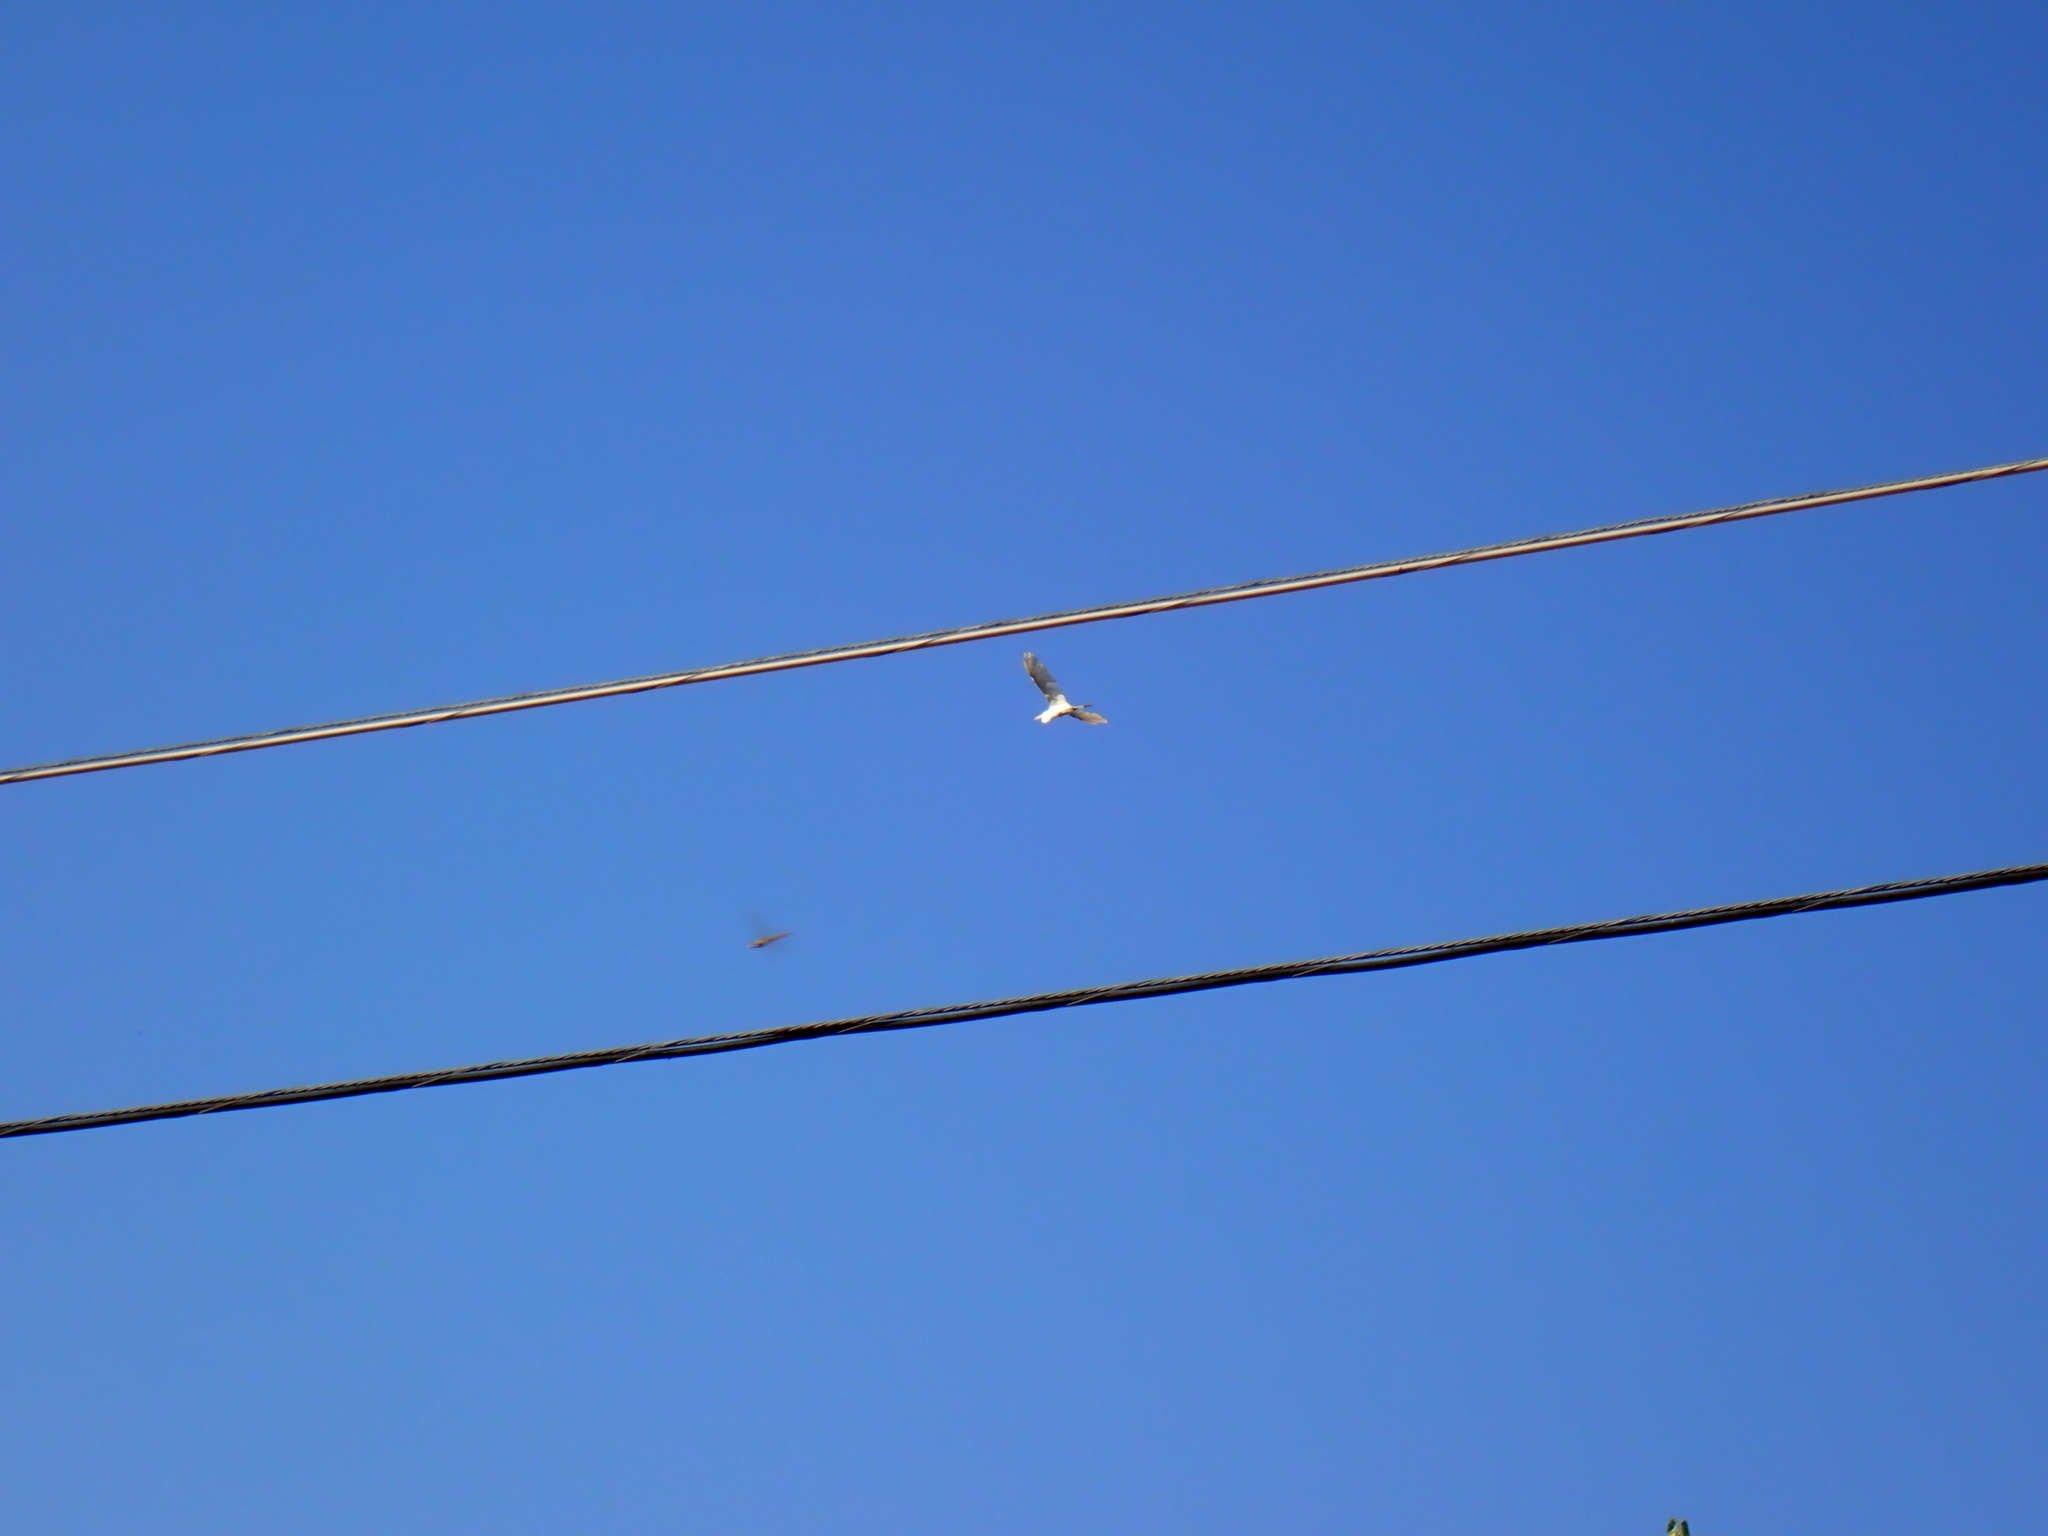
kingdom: Animalia
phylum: Chordata
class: Aves
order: Pelecaniformes
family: Ardeidae
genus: Ardea
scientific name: Ardea alba
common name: Great egret
